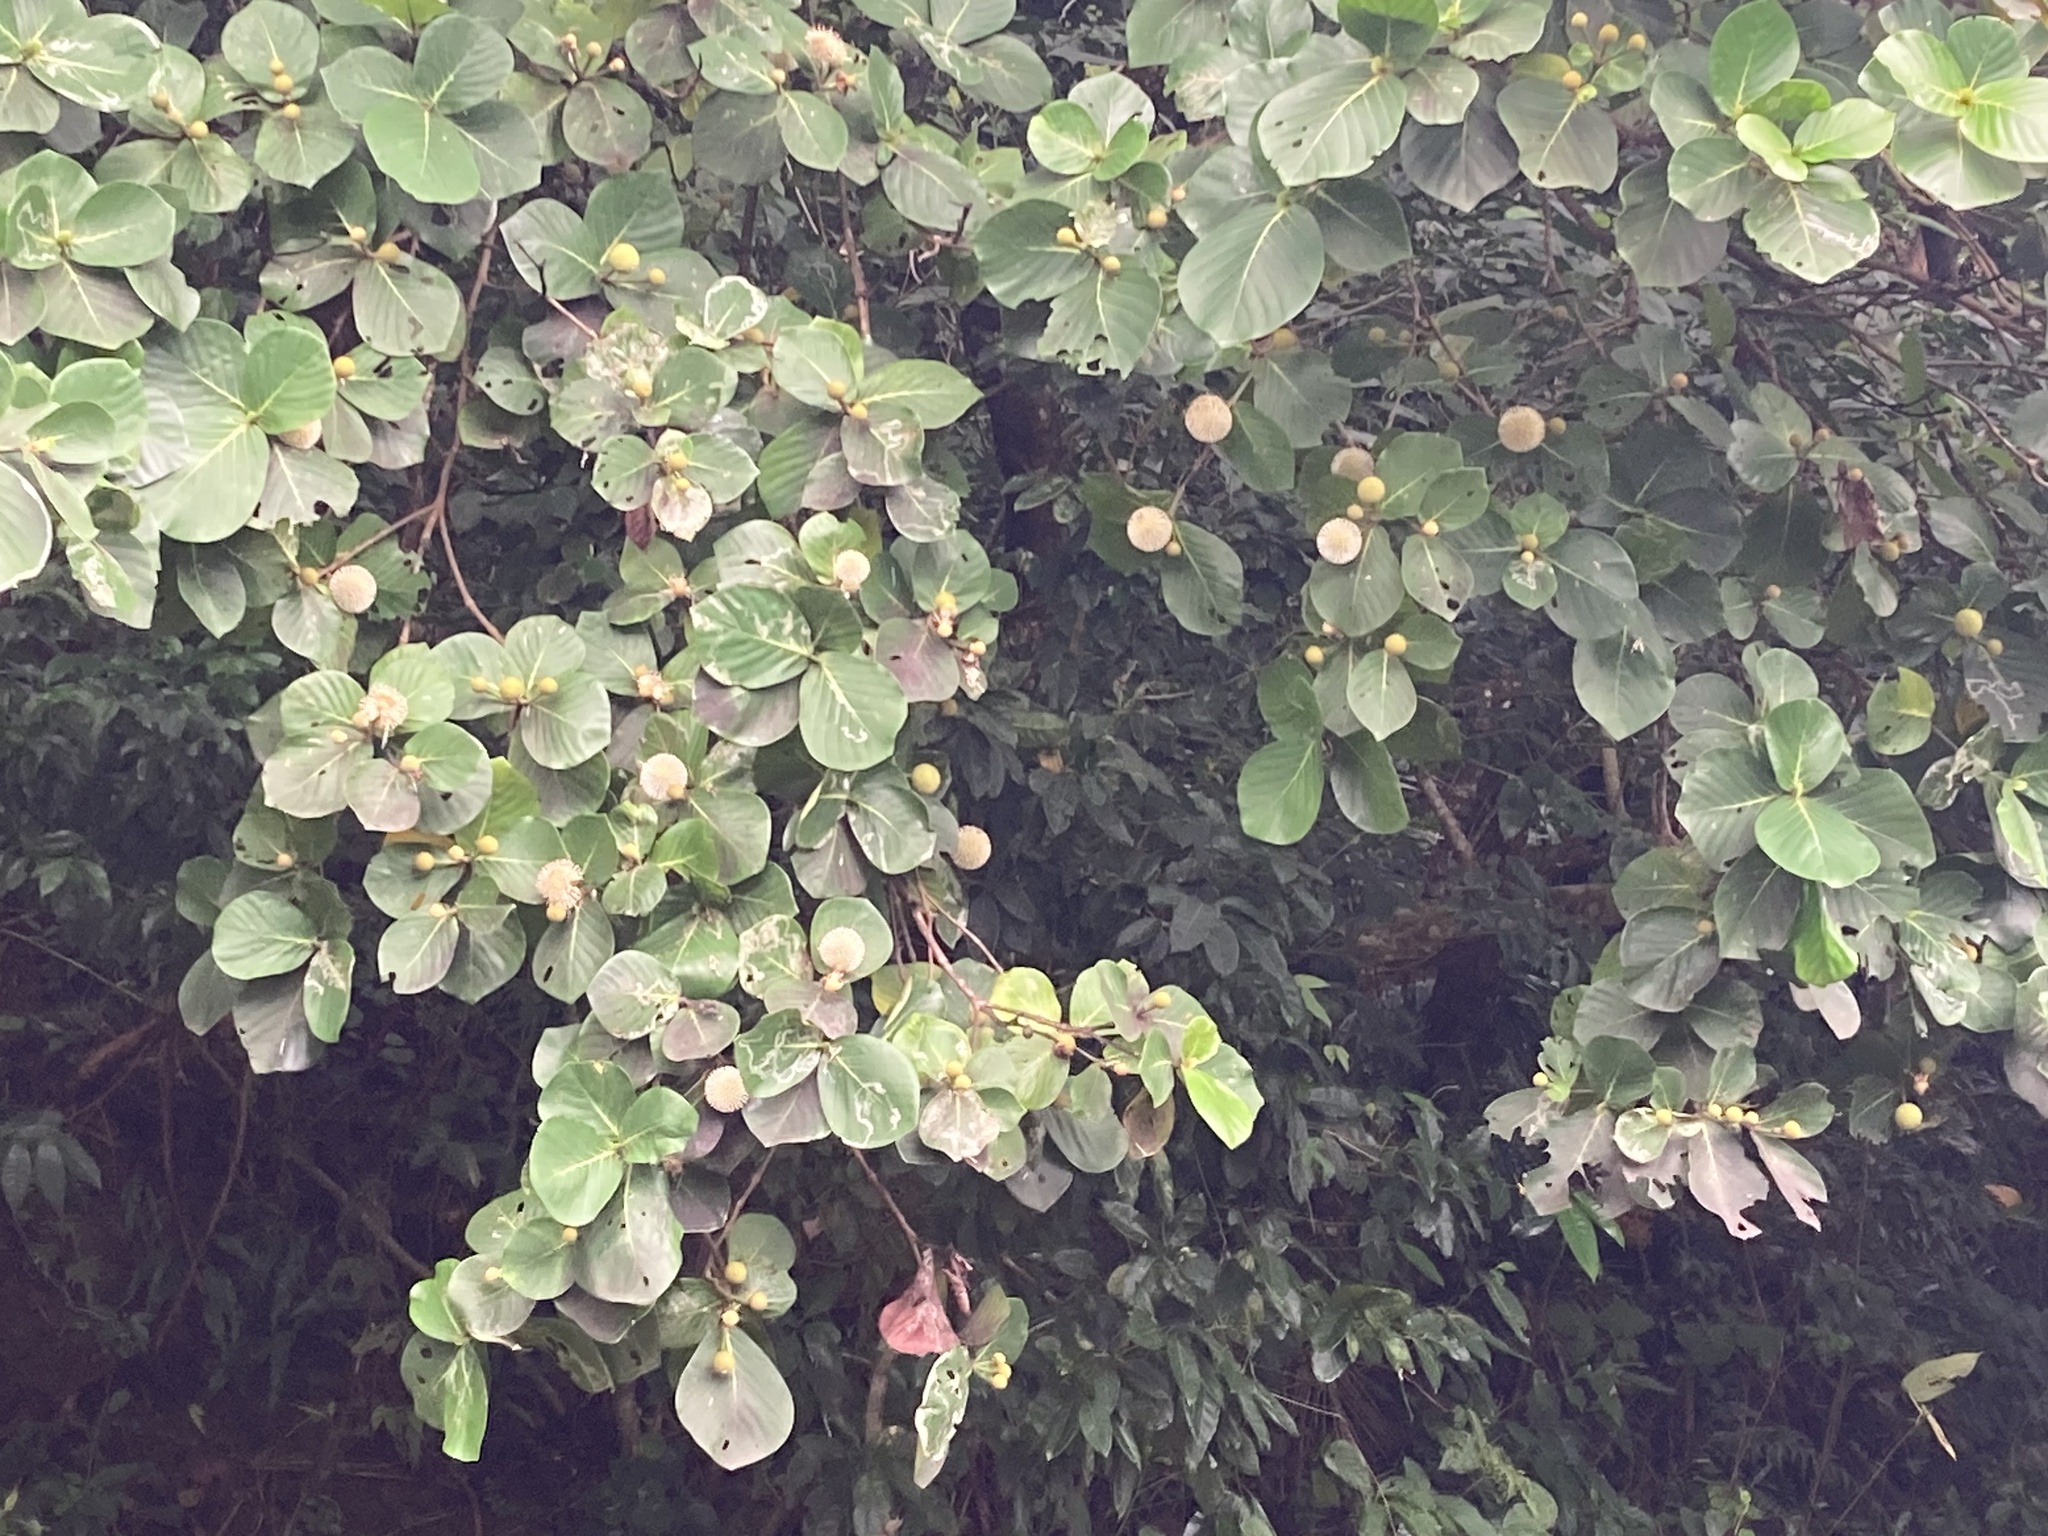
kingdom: Plantae
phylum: Tracheophyta
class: Magnoliopsida
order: Gentianales
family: Rubiaceae
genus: Neonauclea
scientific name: Neonauclea reticulata
